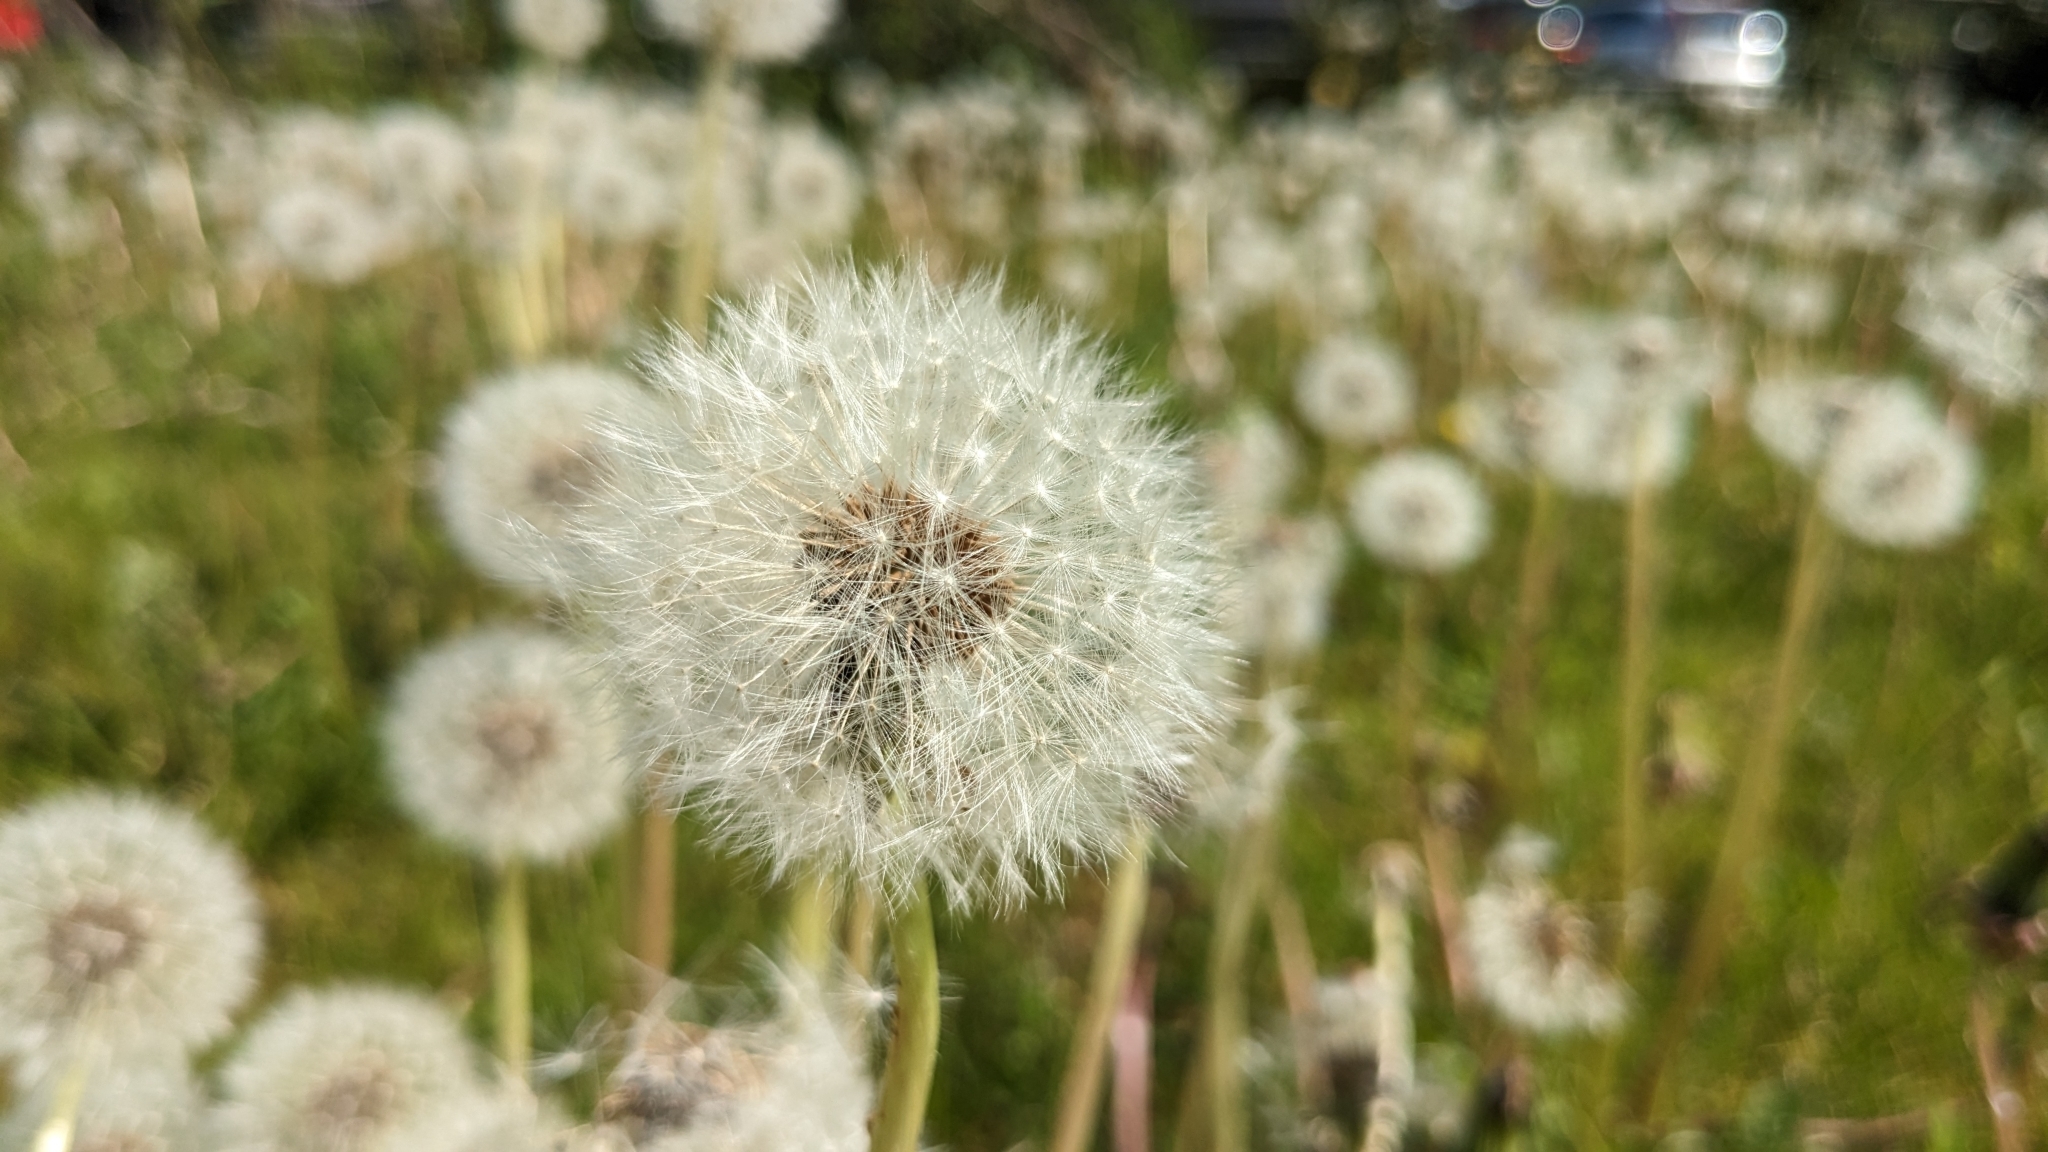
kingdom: Plantae
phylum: Tracheophyta
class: Magnoliopsida
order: Asterales
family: Asteraceae
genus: Taraxacum
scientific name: Taraxacum officinale
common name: Common dandelion
